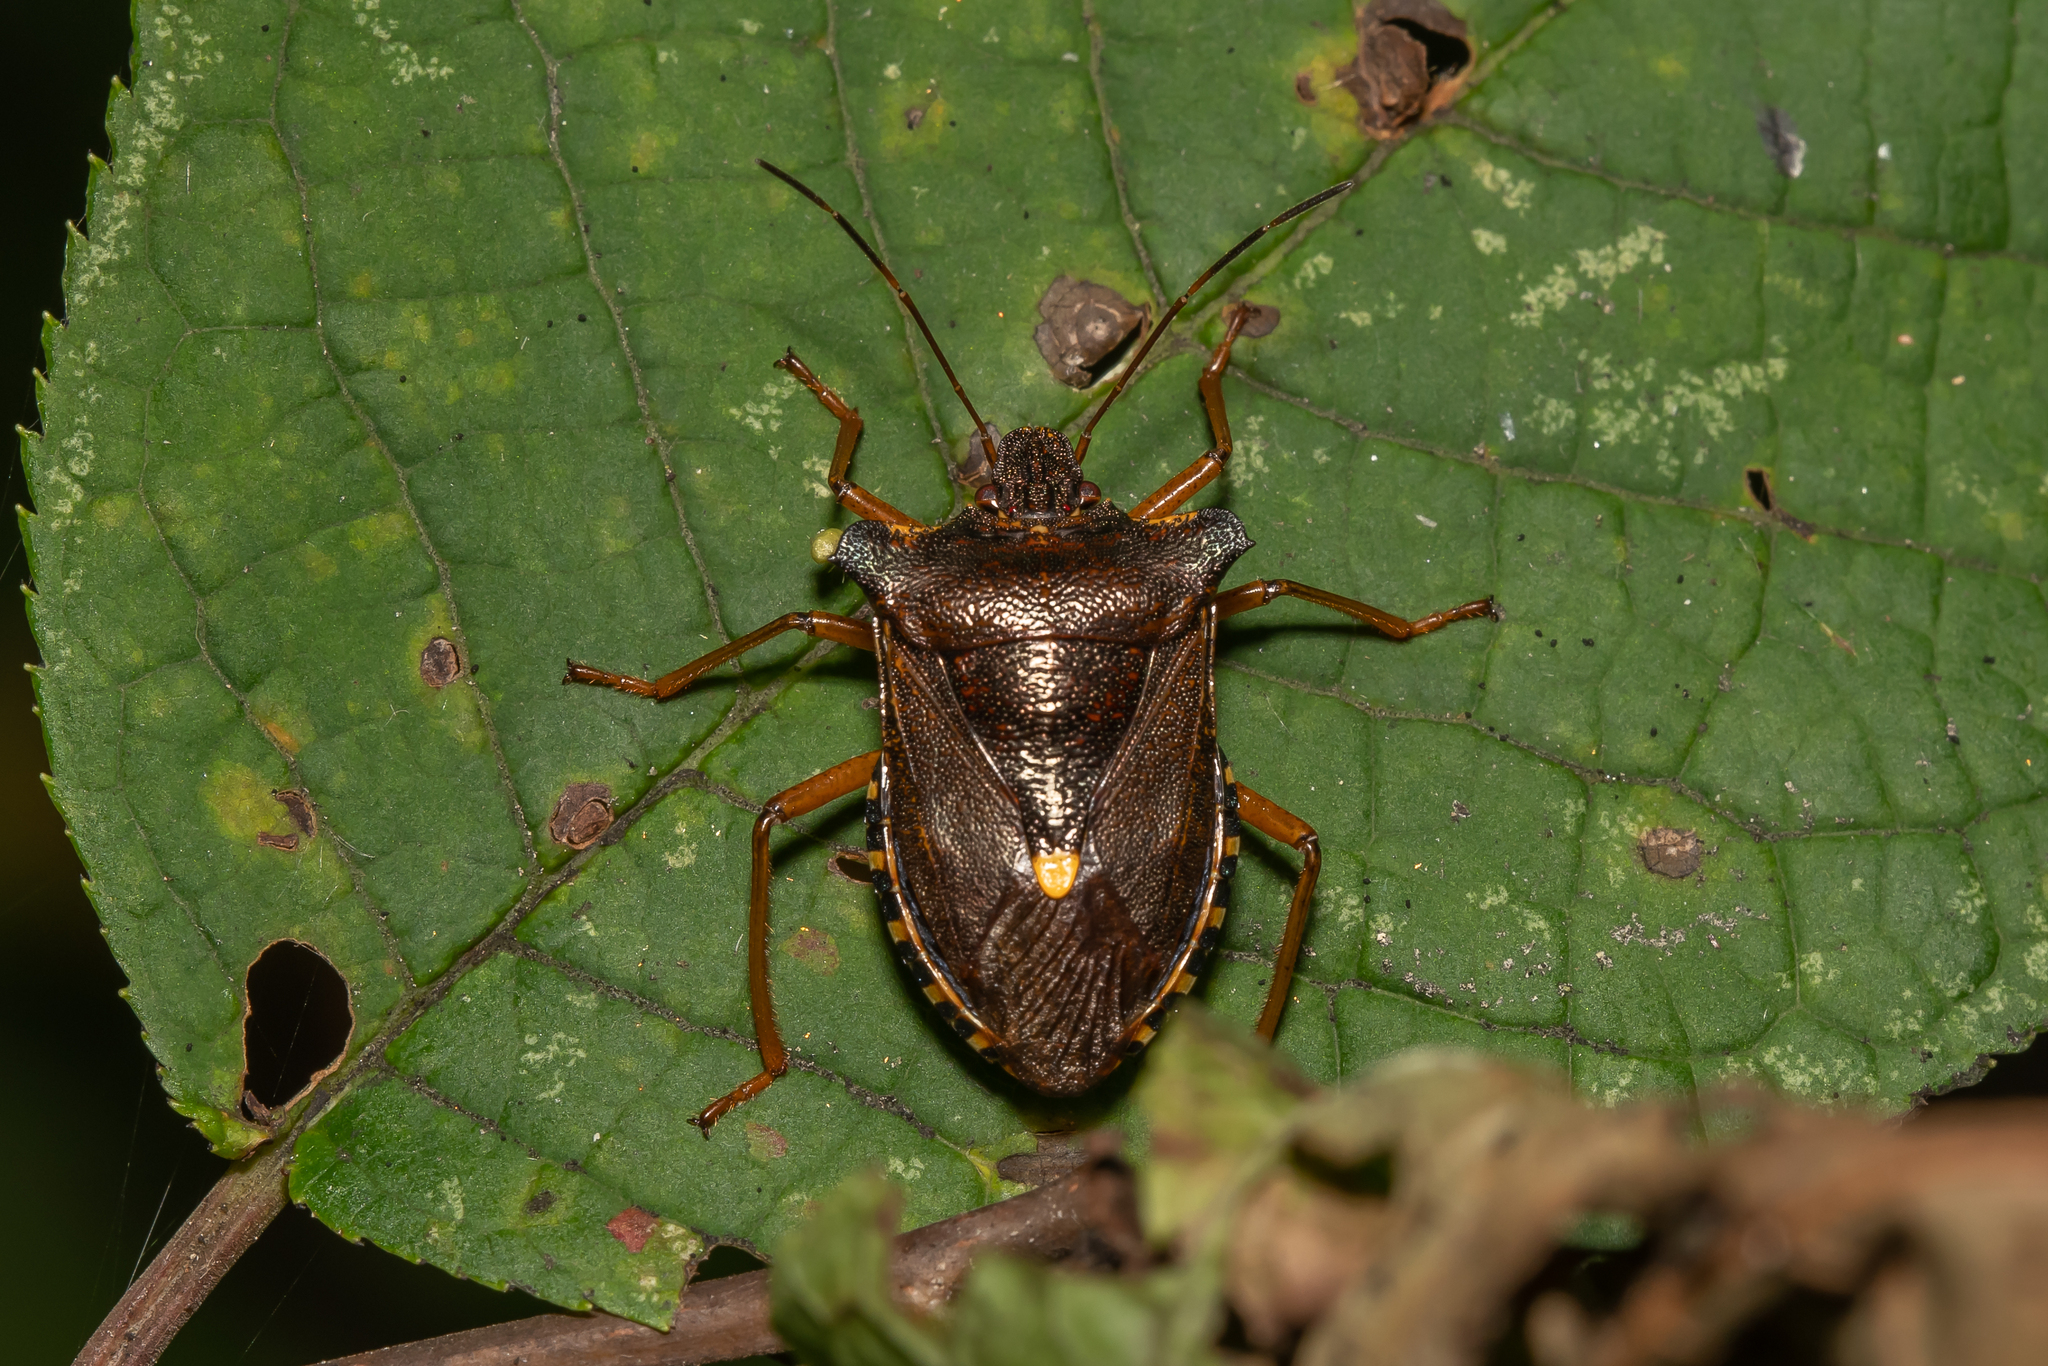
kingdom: Animalia
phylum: Arthropoda
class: Insecta
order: Hemiptera
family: Pentatomidae
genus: Pentatoma
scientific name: Pentatoma rufipes
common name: Forest bug
